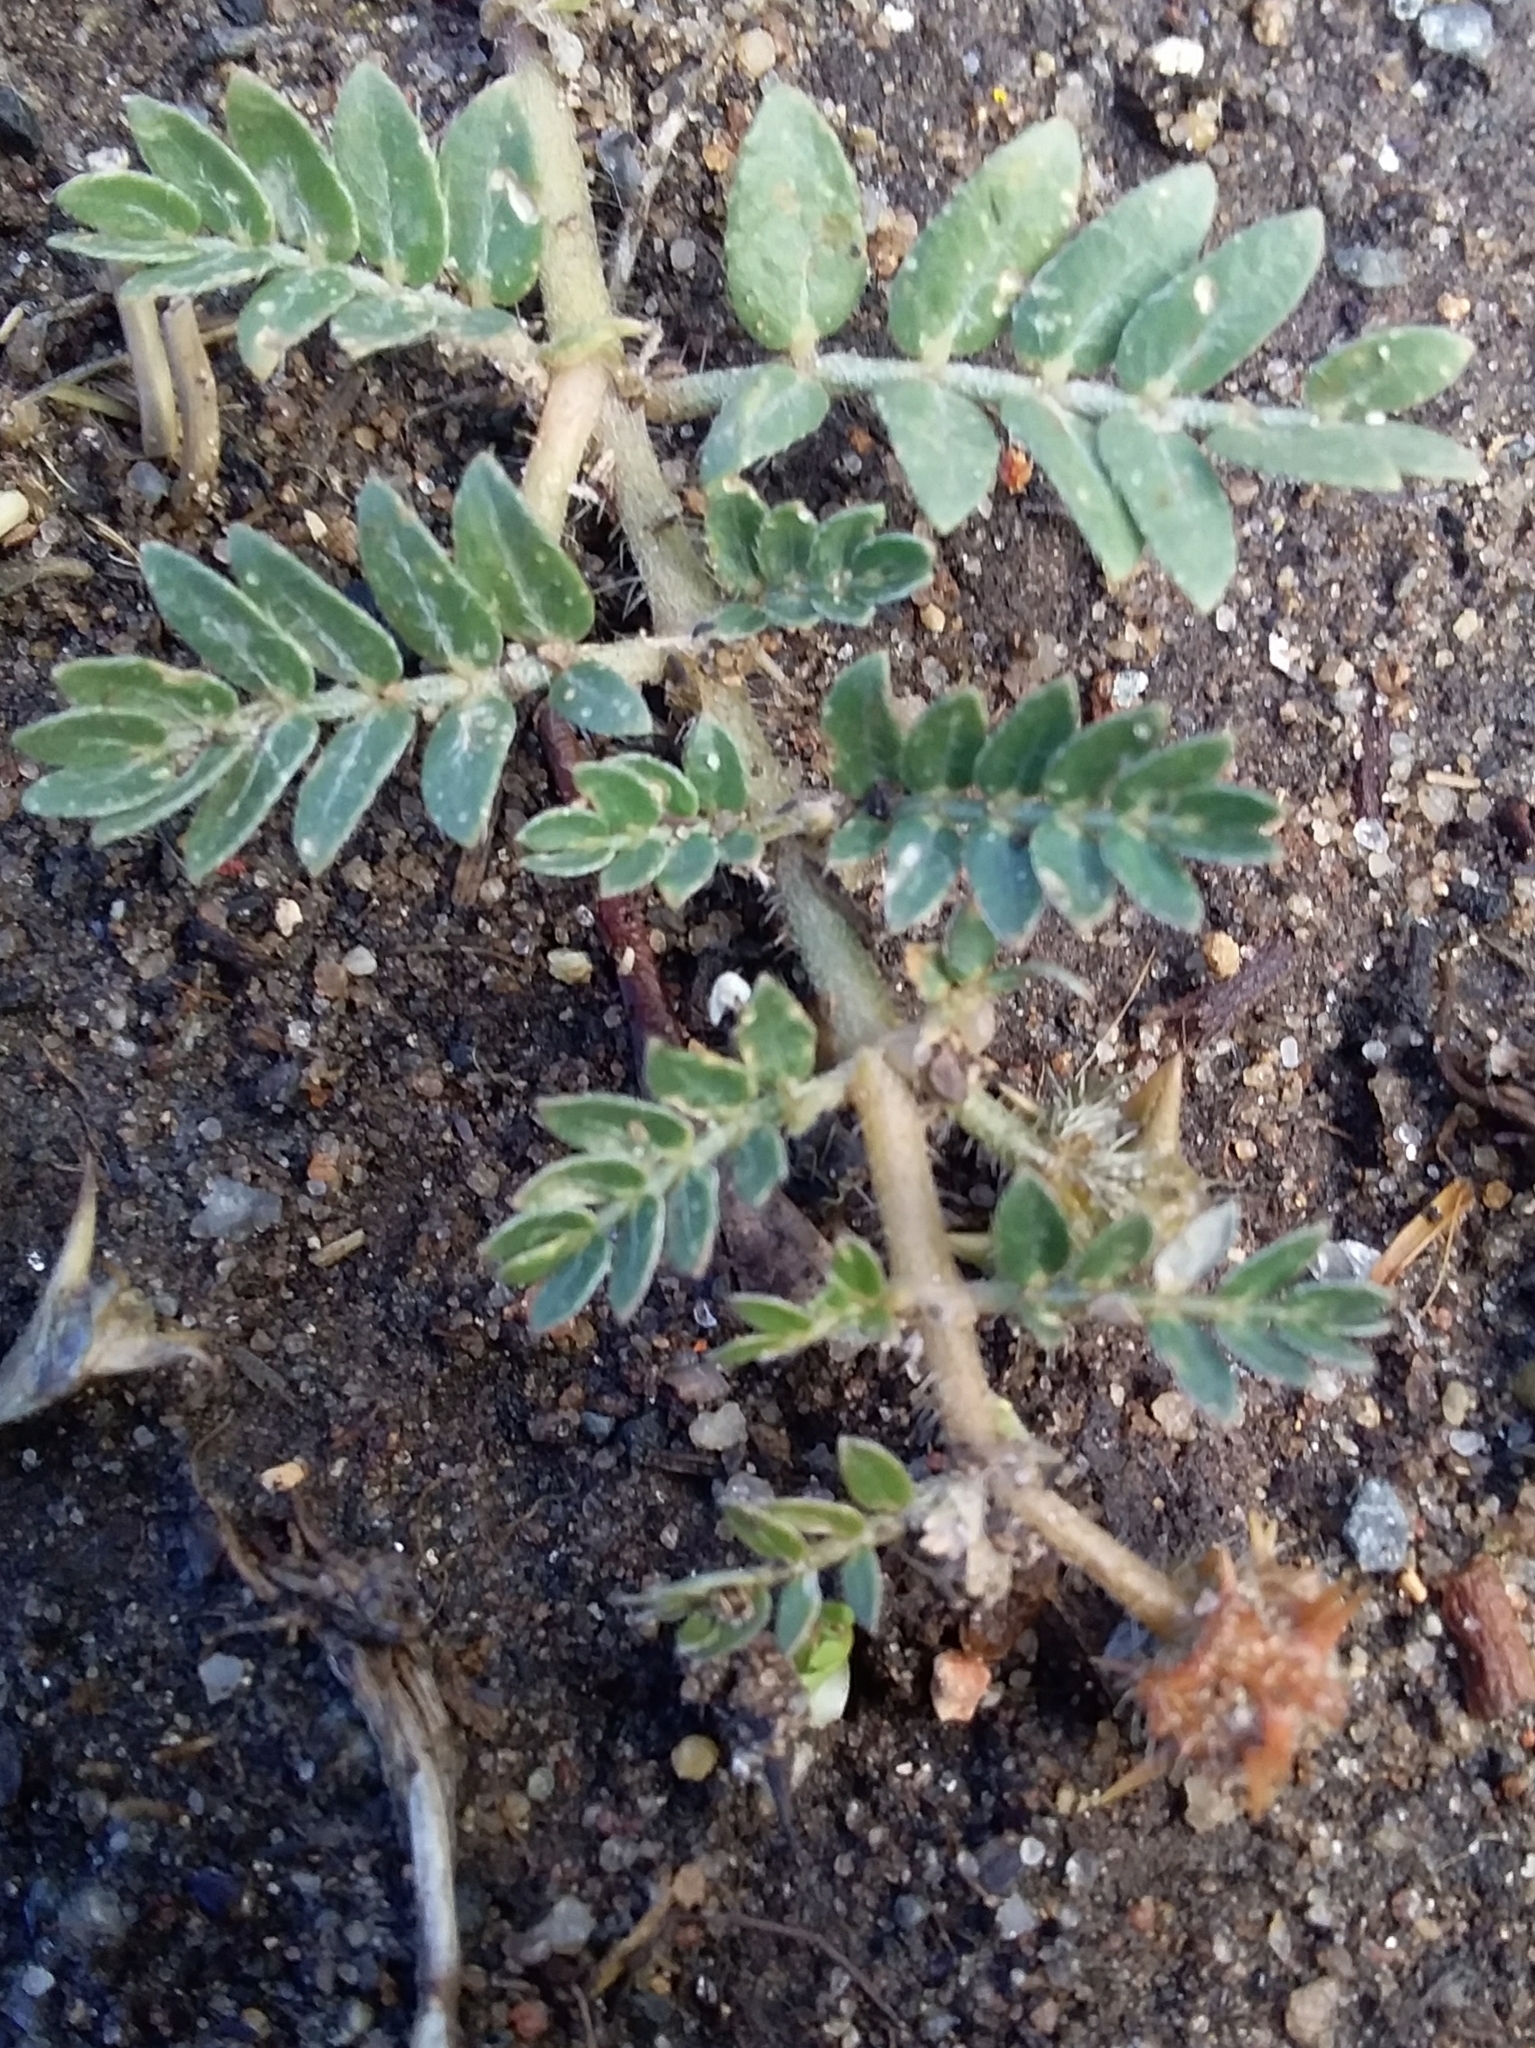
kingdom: Plantae
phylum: Tracheophyta
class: Magnoliopsida
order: Zygophyllales
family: Zygophyllaceae
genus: Tribulus
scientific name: Tribulus terrestris
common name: Puncturevine
